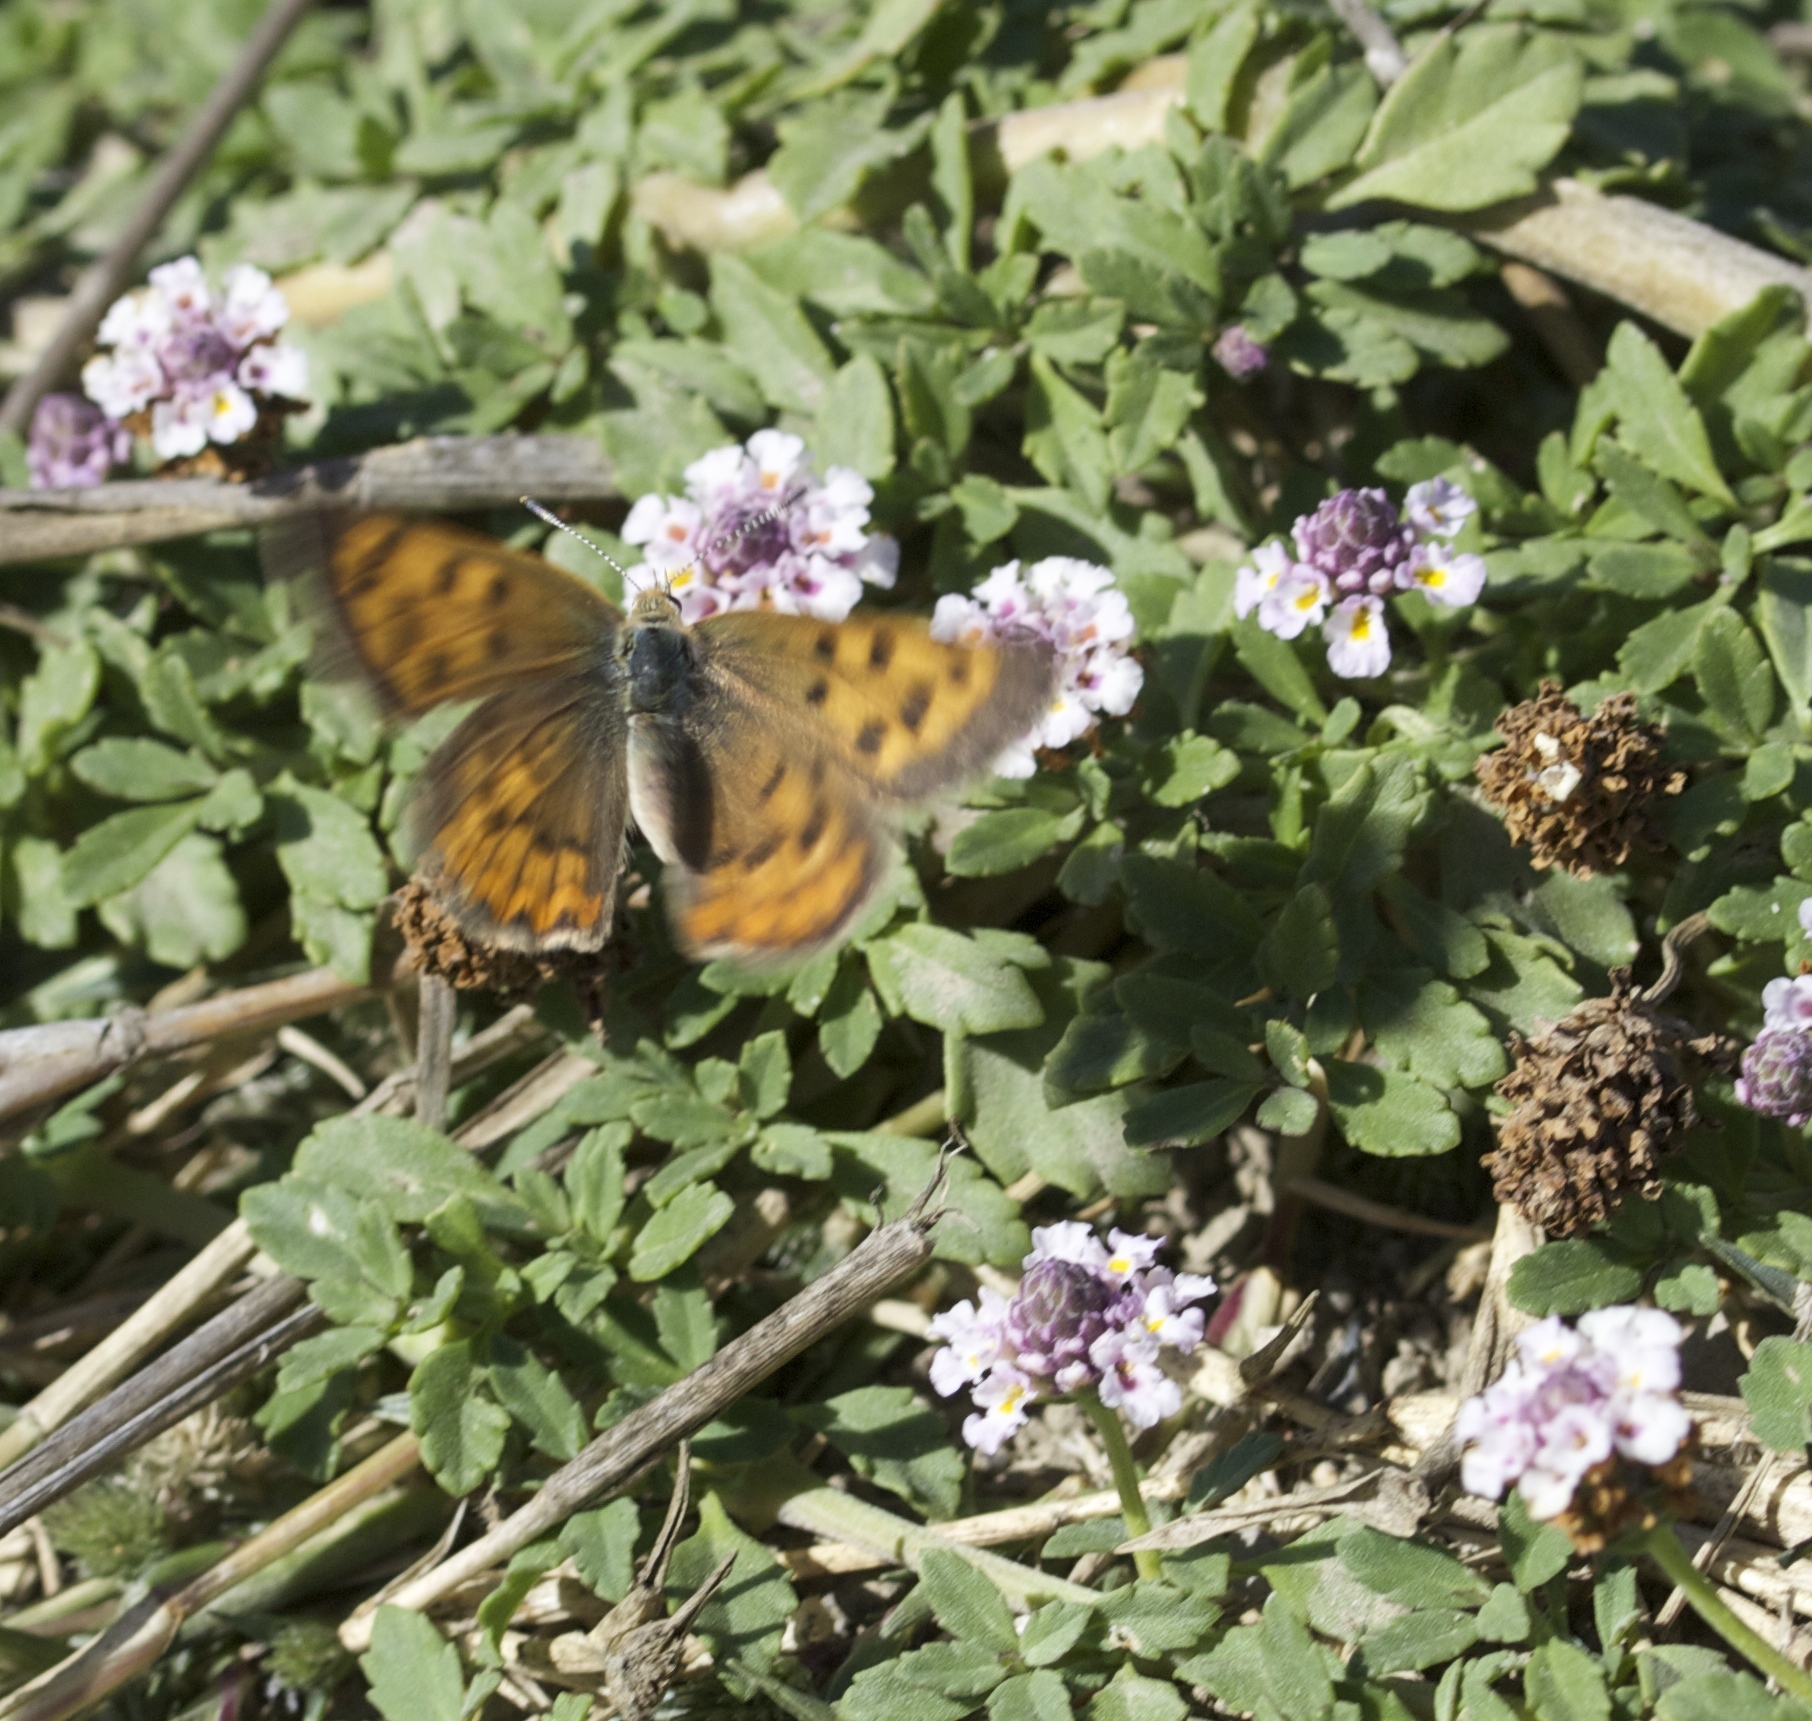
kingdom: Animalia
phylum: Arthropoda
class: Insecta
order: Lepidoptera
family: Lycaenidae
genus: Tharsalea
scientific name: Tharsalea helloides
